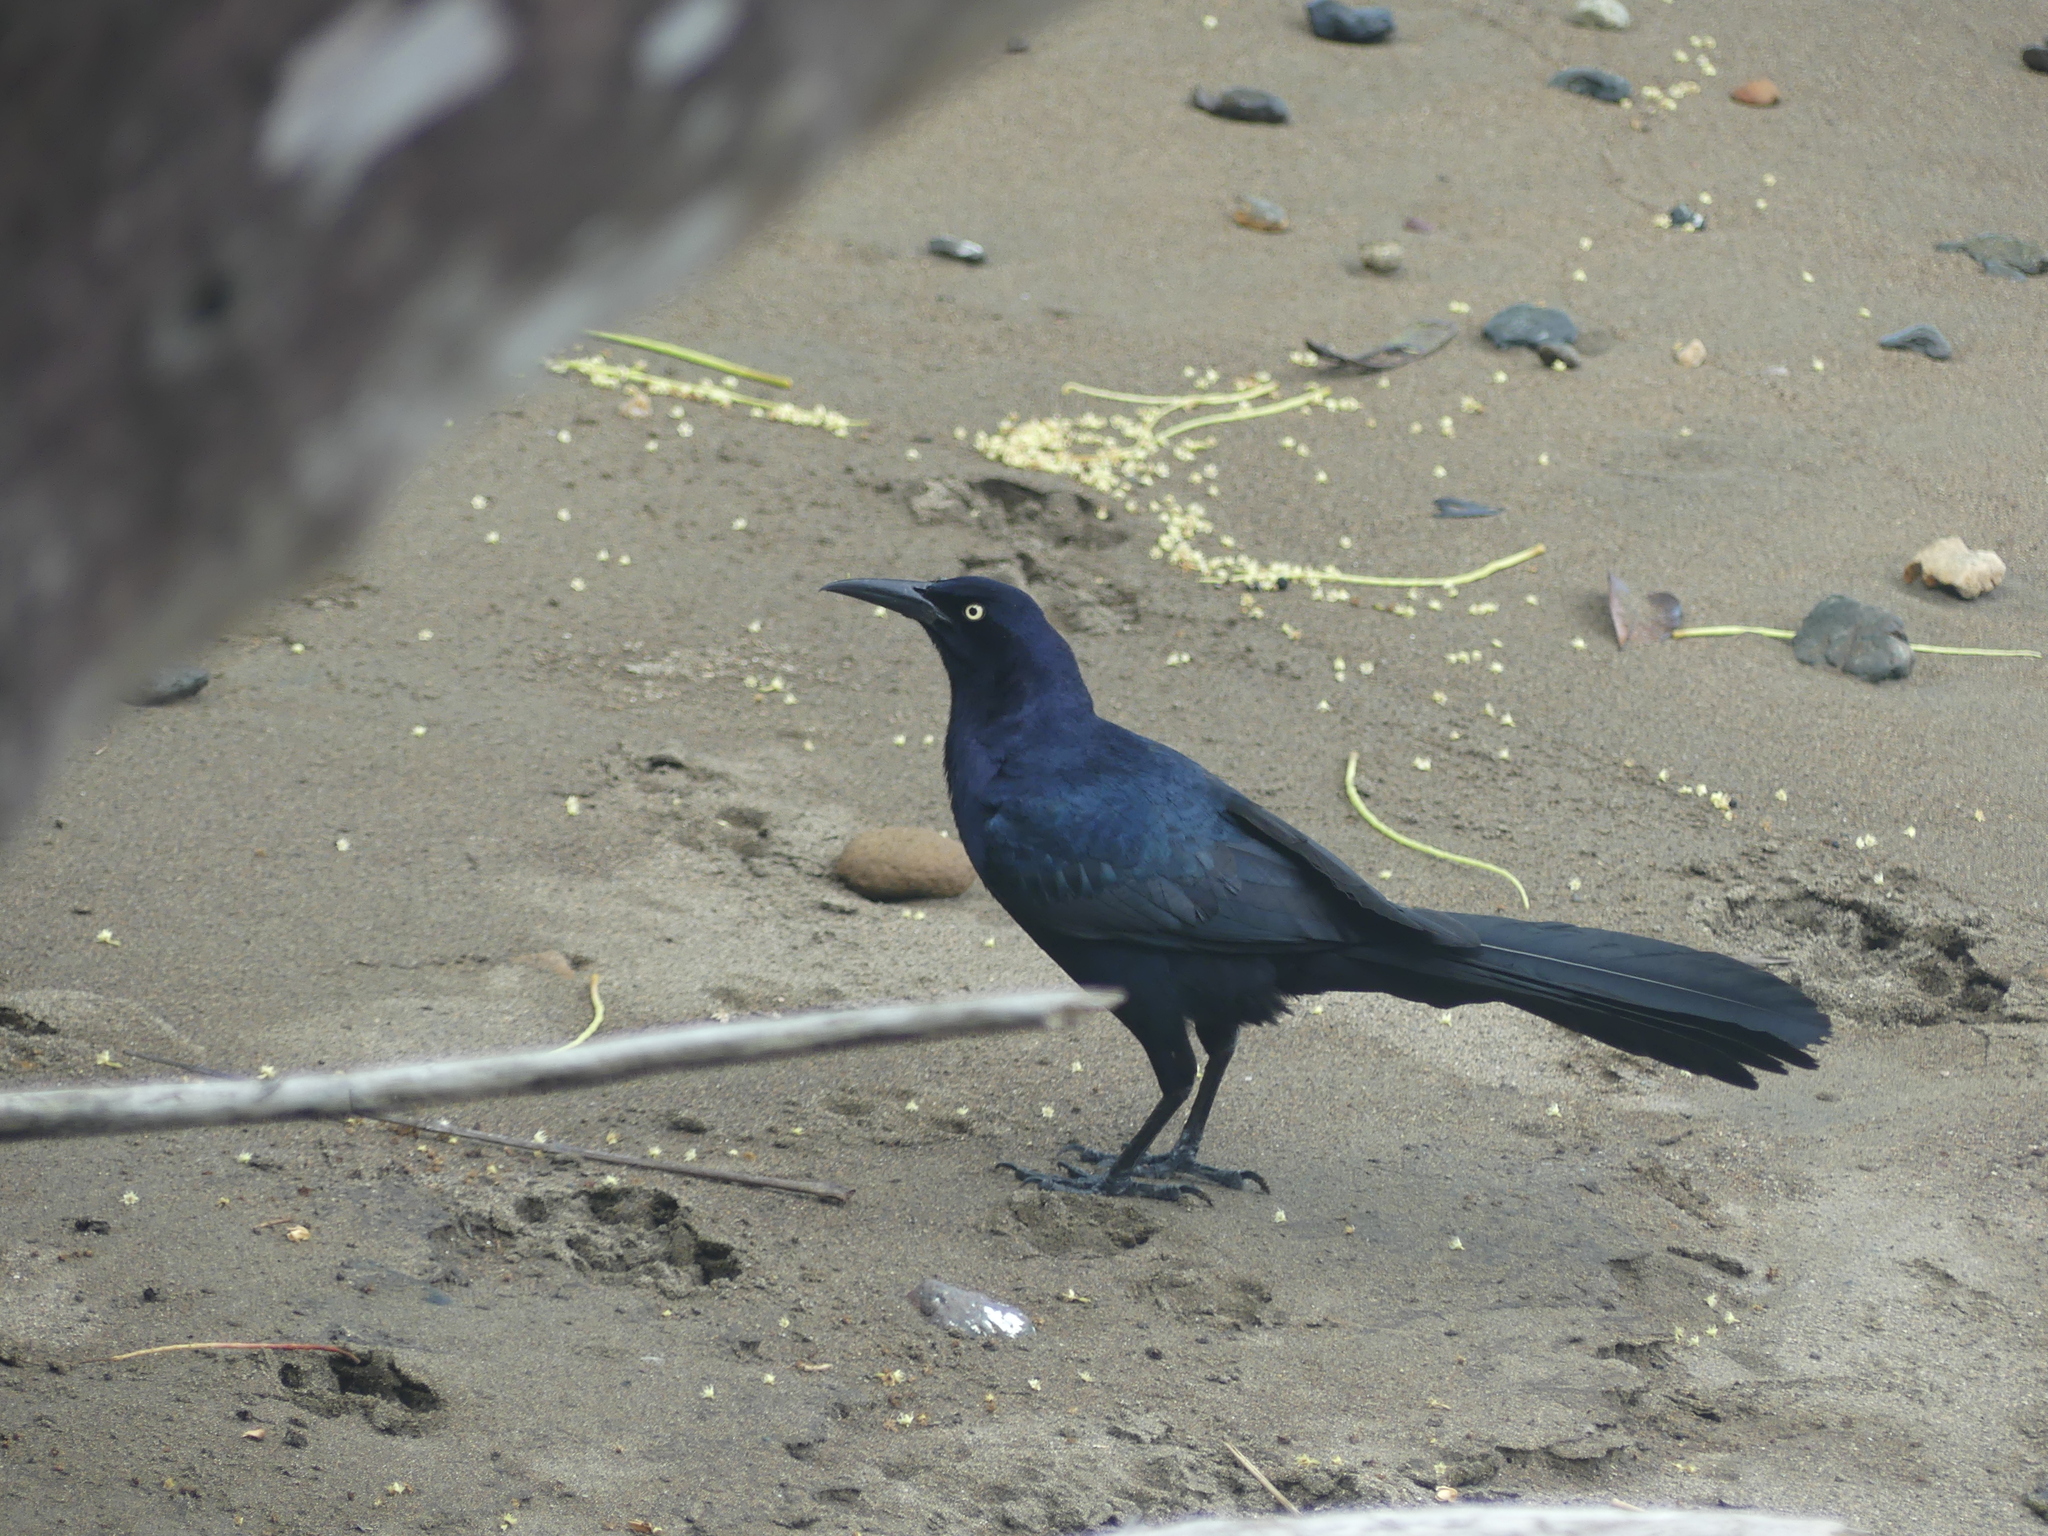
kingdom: Animalia
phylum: Chordata
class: Aves
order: Passeriformes
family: Icteridae
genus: Quiscalus
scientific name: Quiscalus mexicanus
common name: Great-tailed grackle
